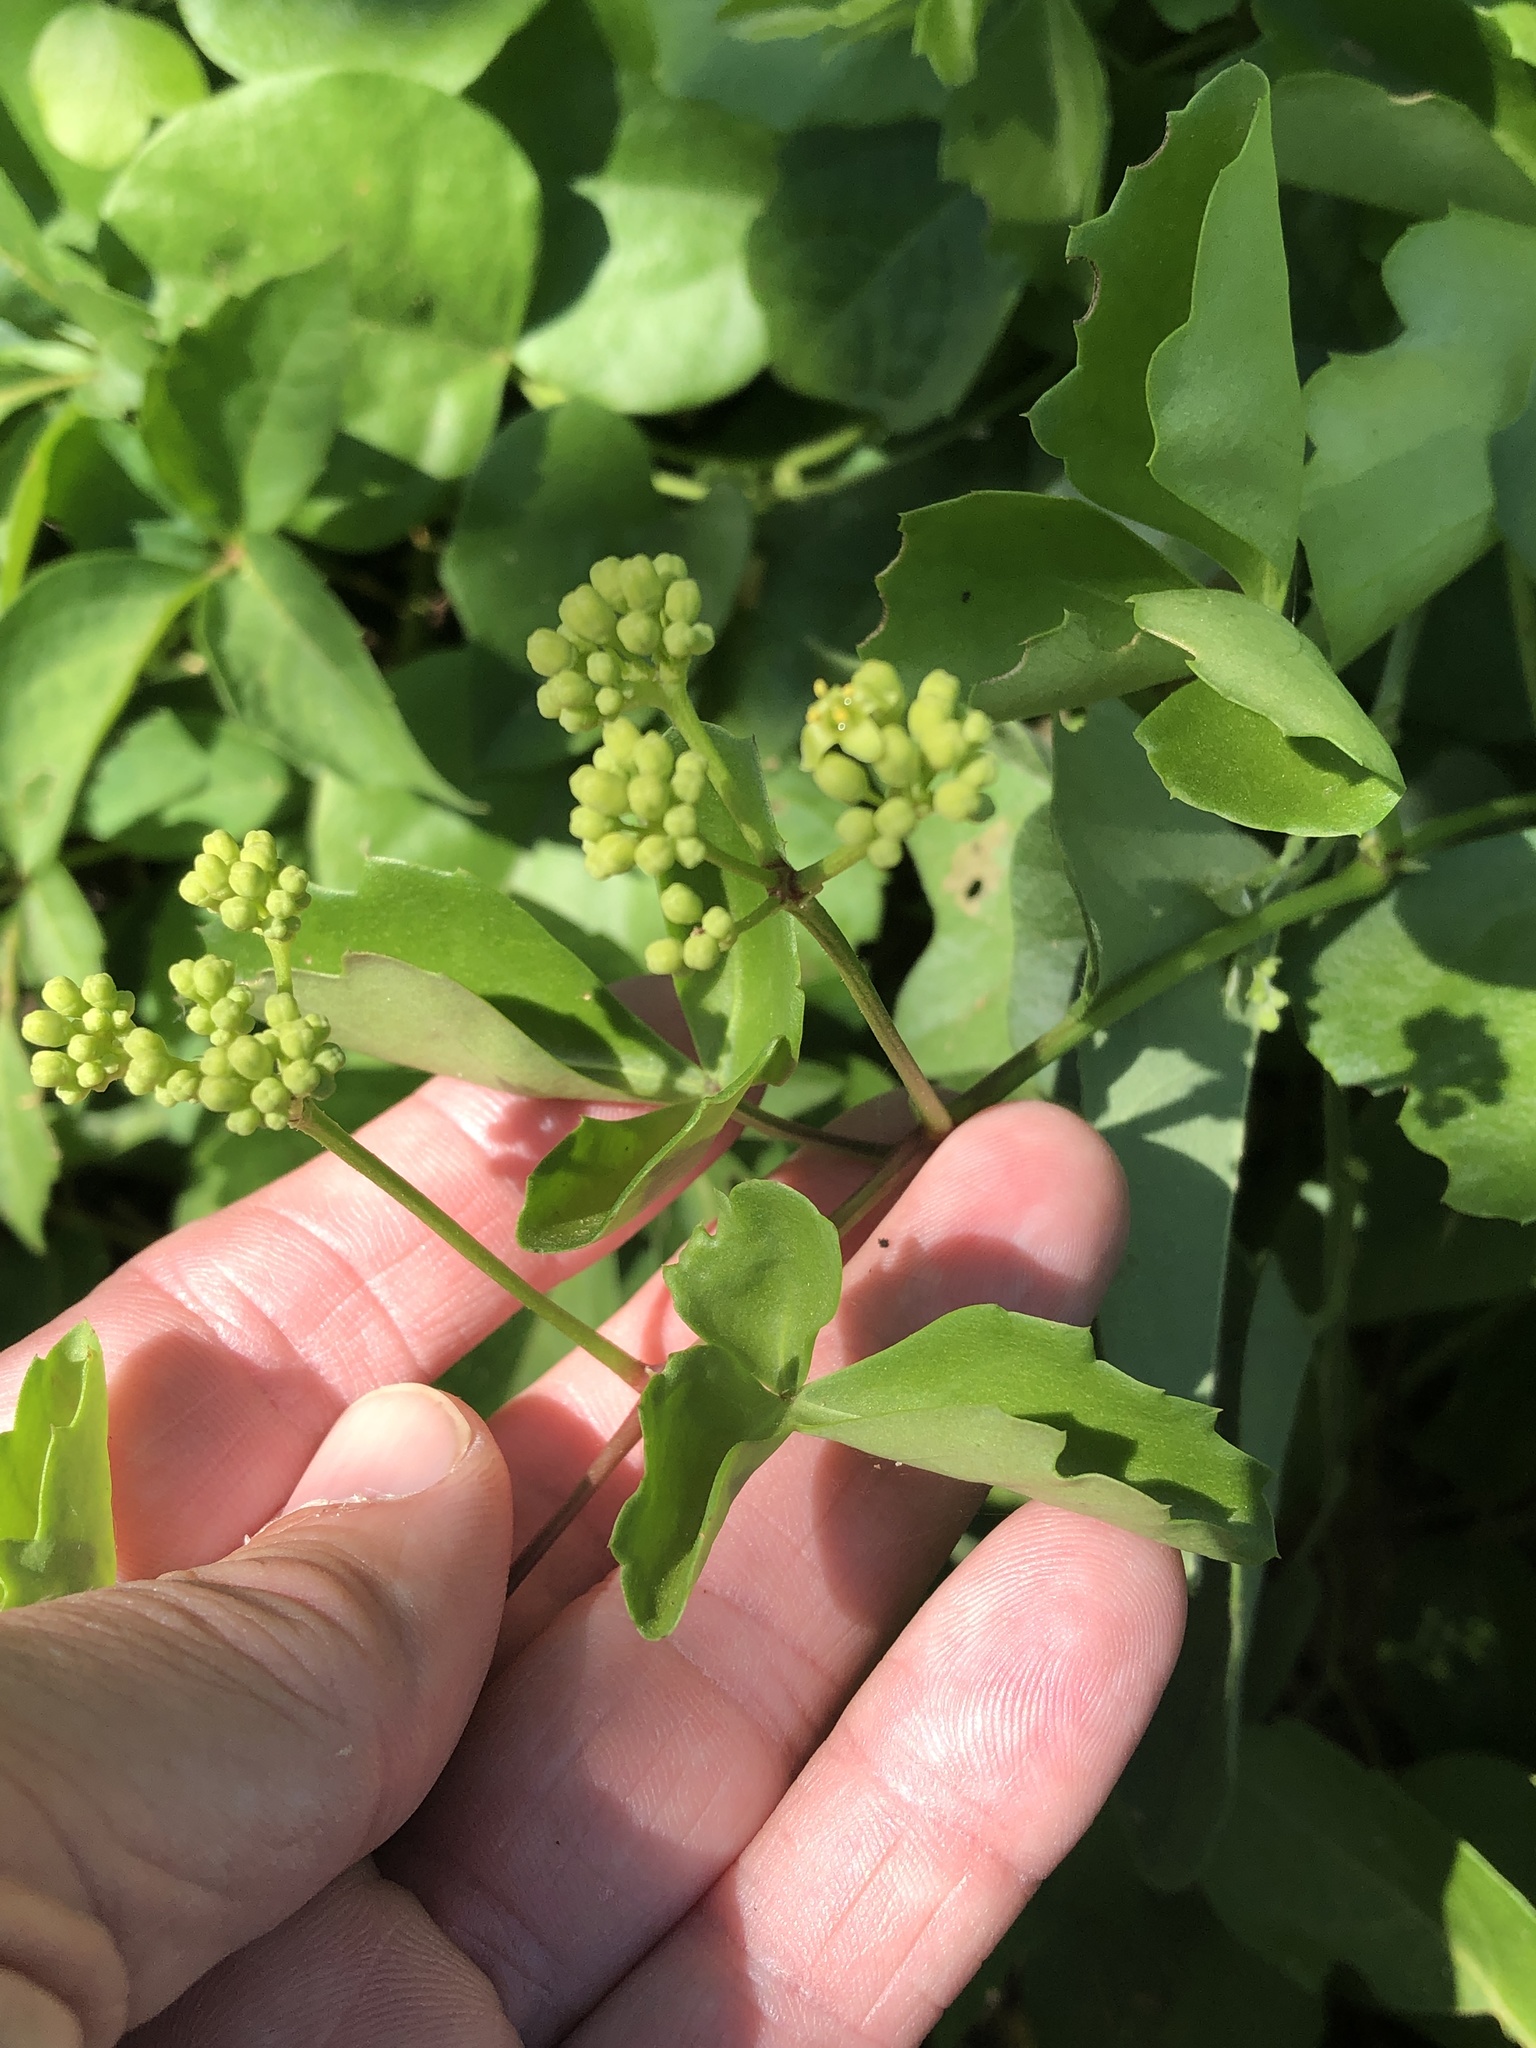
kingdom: Plantae
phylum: Tracheophyta
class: Magnoliopsida
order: Vitales
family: Vitaceae
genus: Cissus
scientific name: Cissus trifoliata
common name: Vine-sorrel
